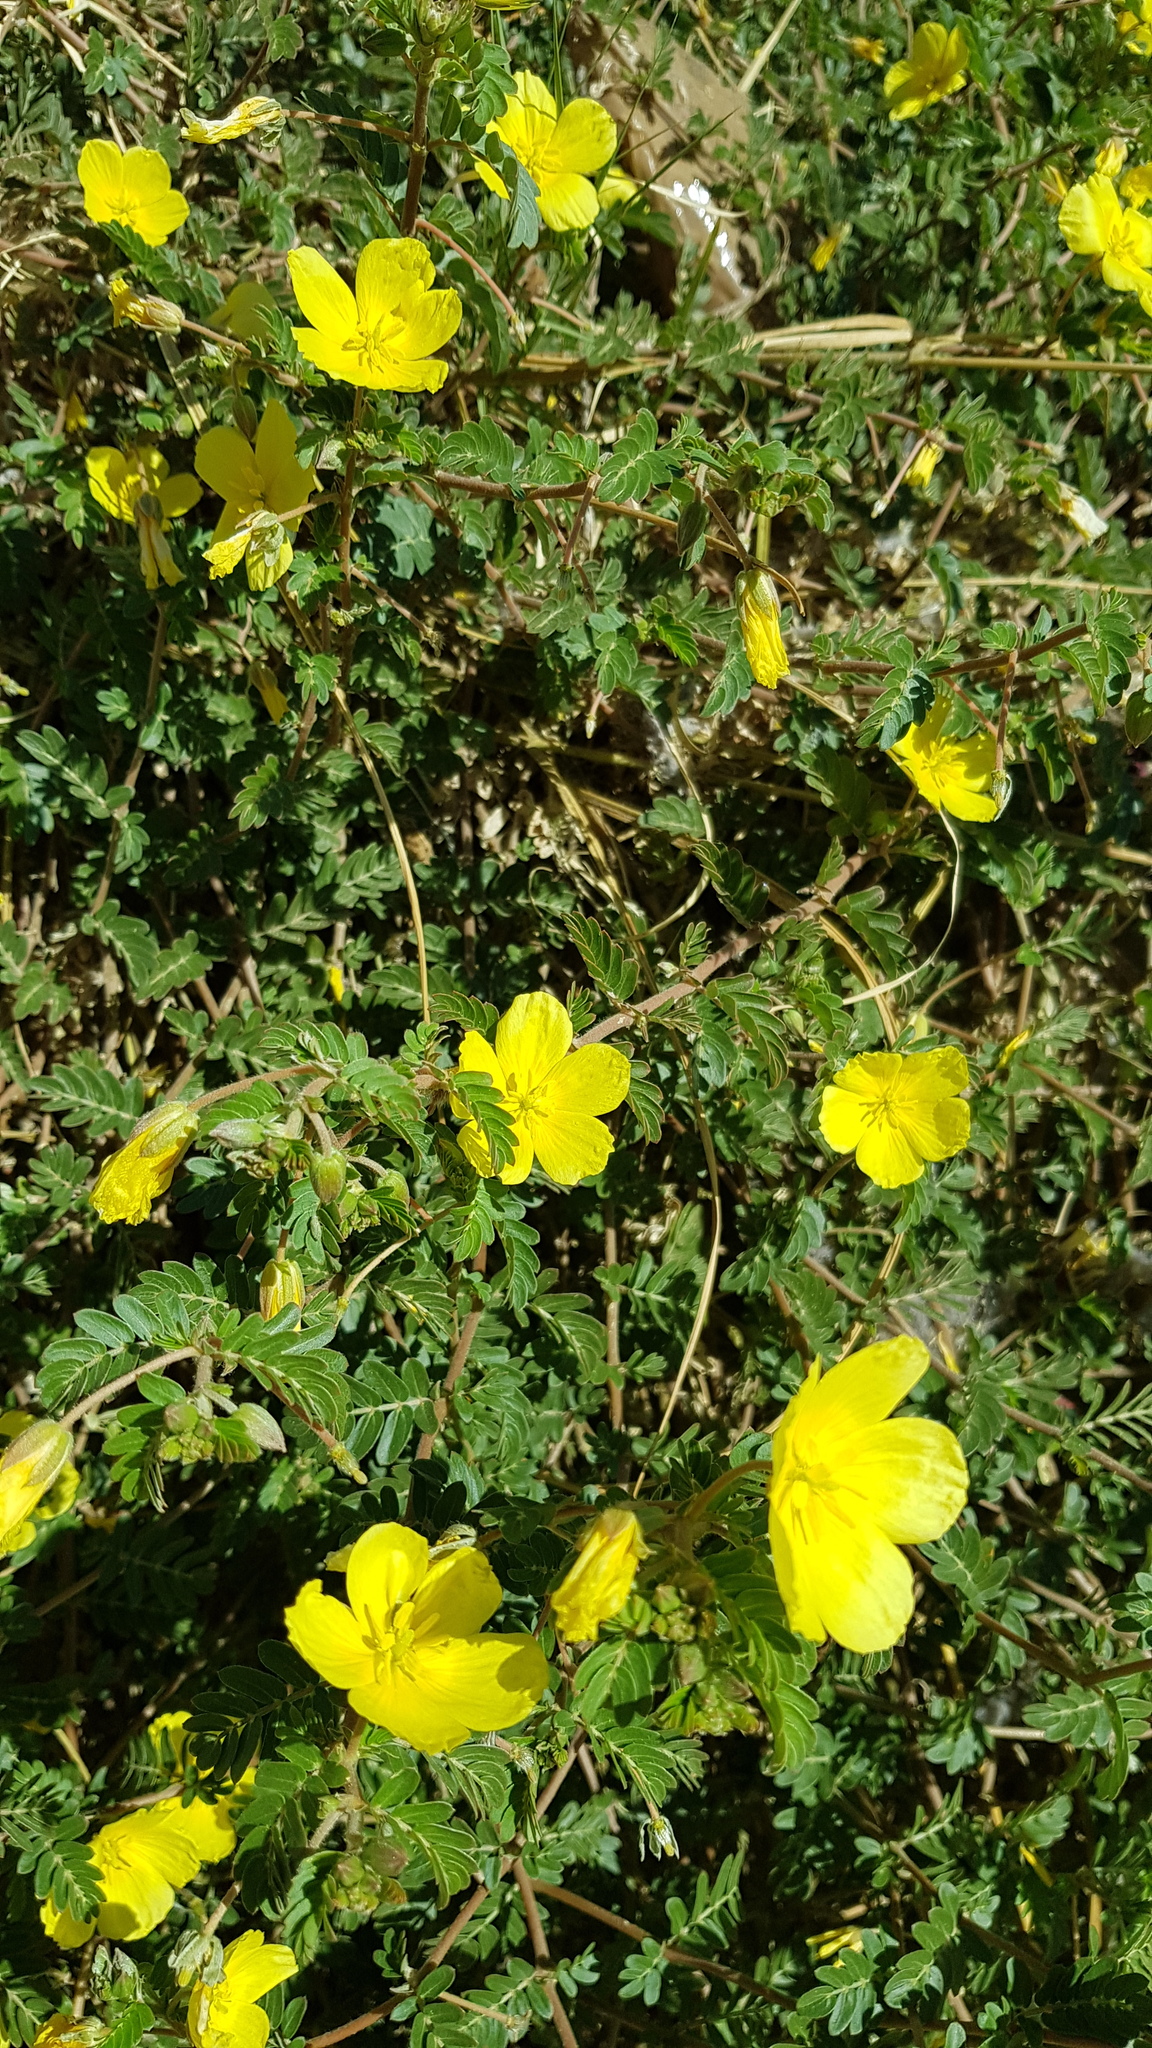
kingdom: Plantae
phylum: Tracheophyta
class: Magnoliopsida
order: Zygophyllales
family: Zygophyllaceae
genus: Tribulus
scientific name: Tribulus cistoides
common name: Jamaican feverplant
